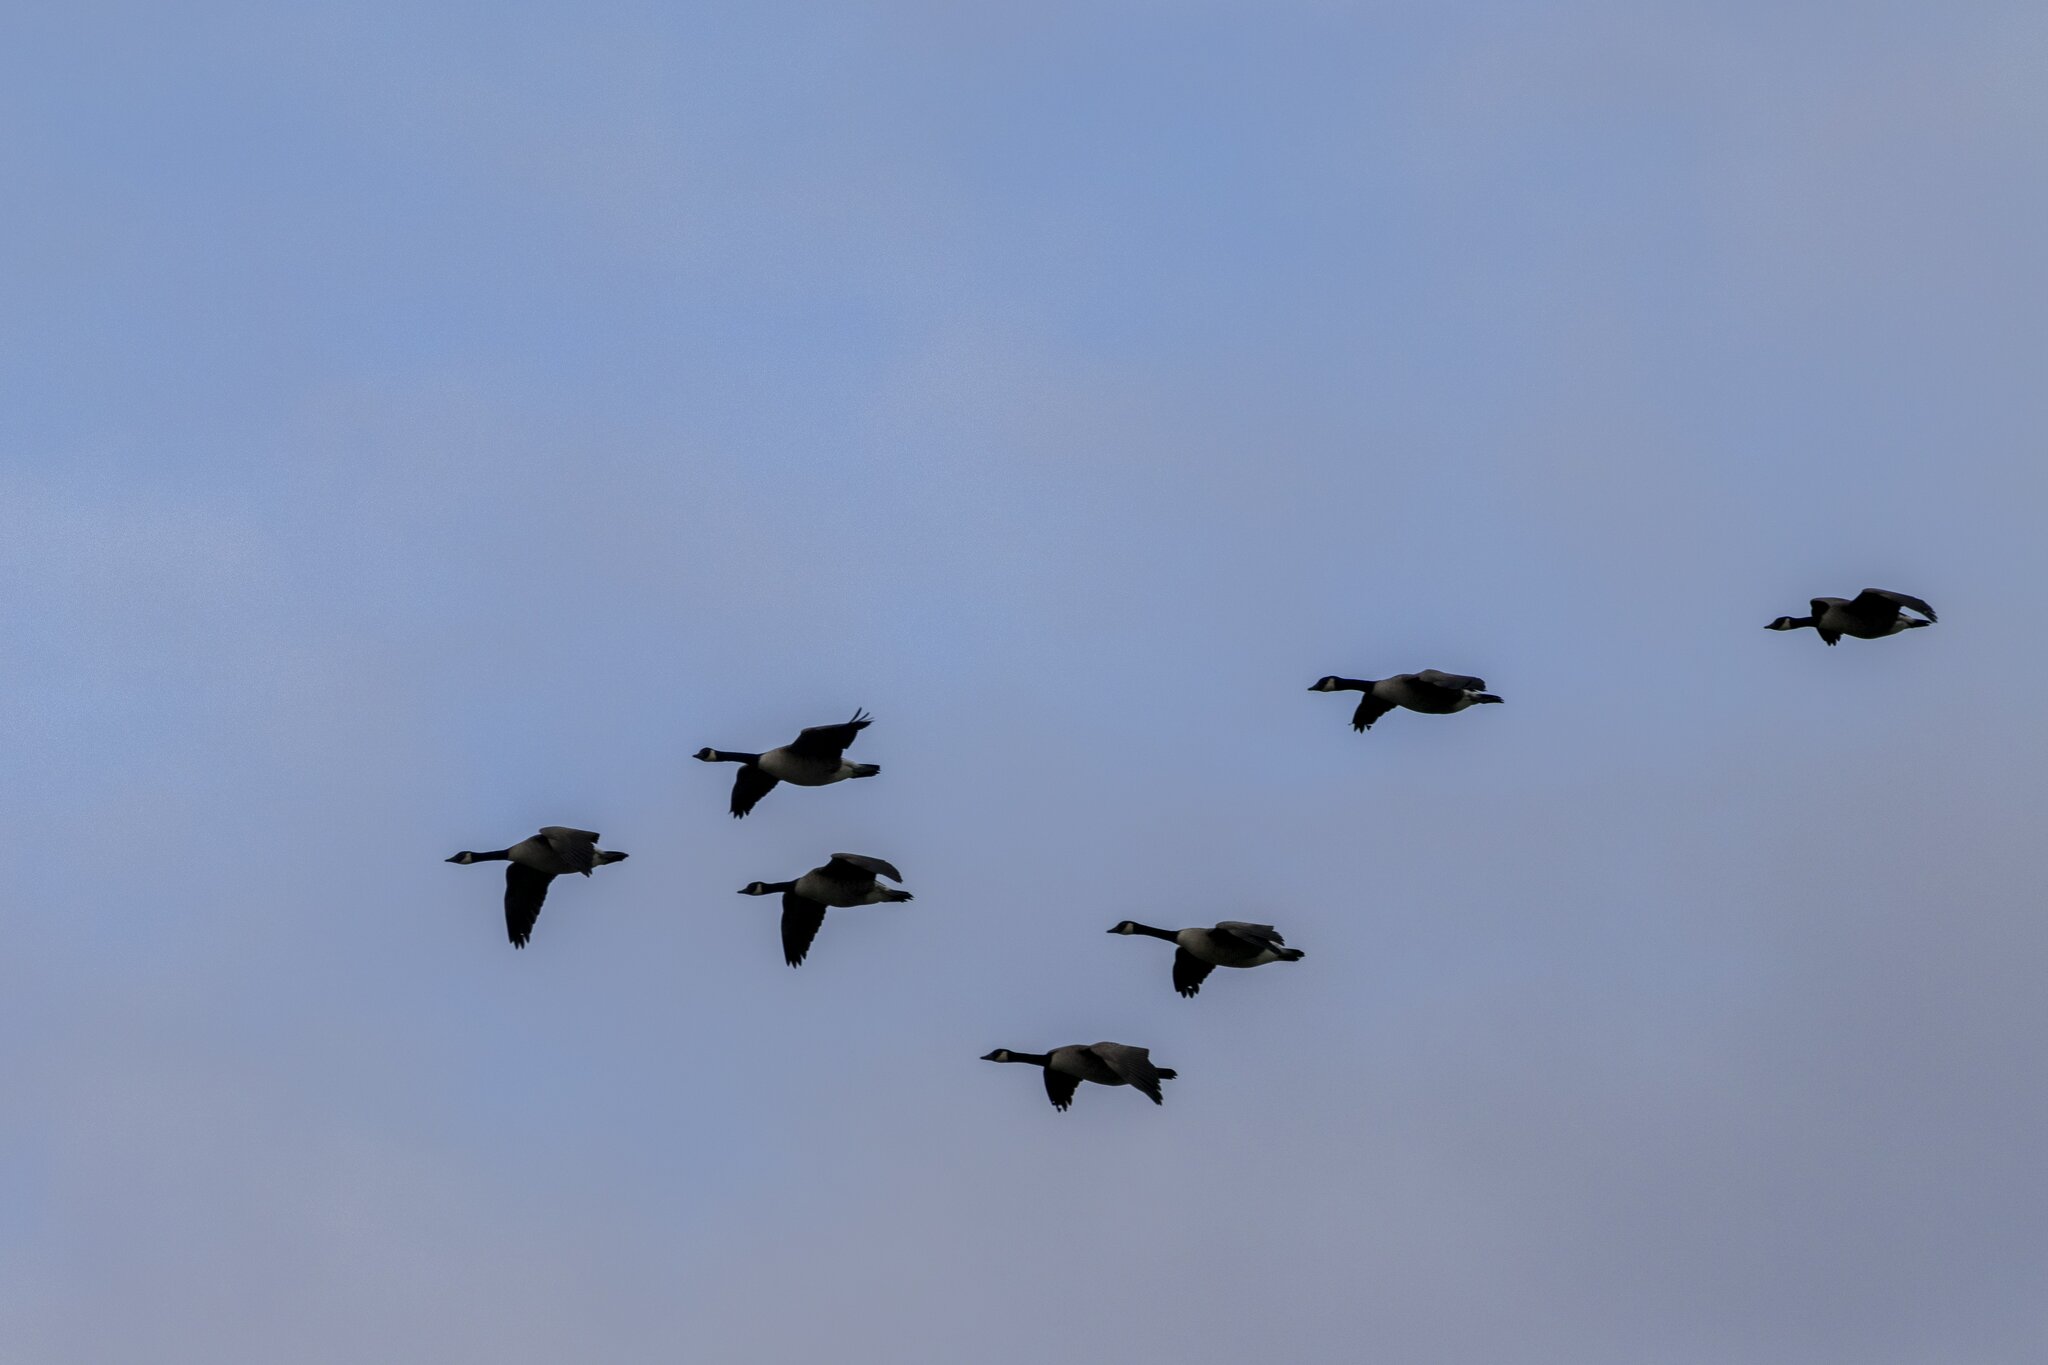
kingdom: Animalia
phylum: Chordata
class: Aves
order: Anseriformes
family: Anatidae
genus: Branta
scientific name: Branta canadensis
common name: Canada goose
